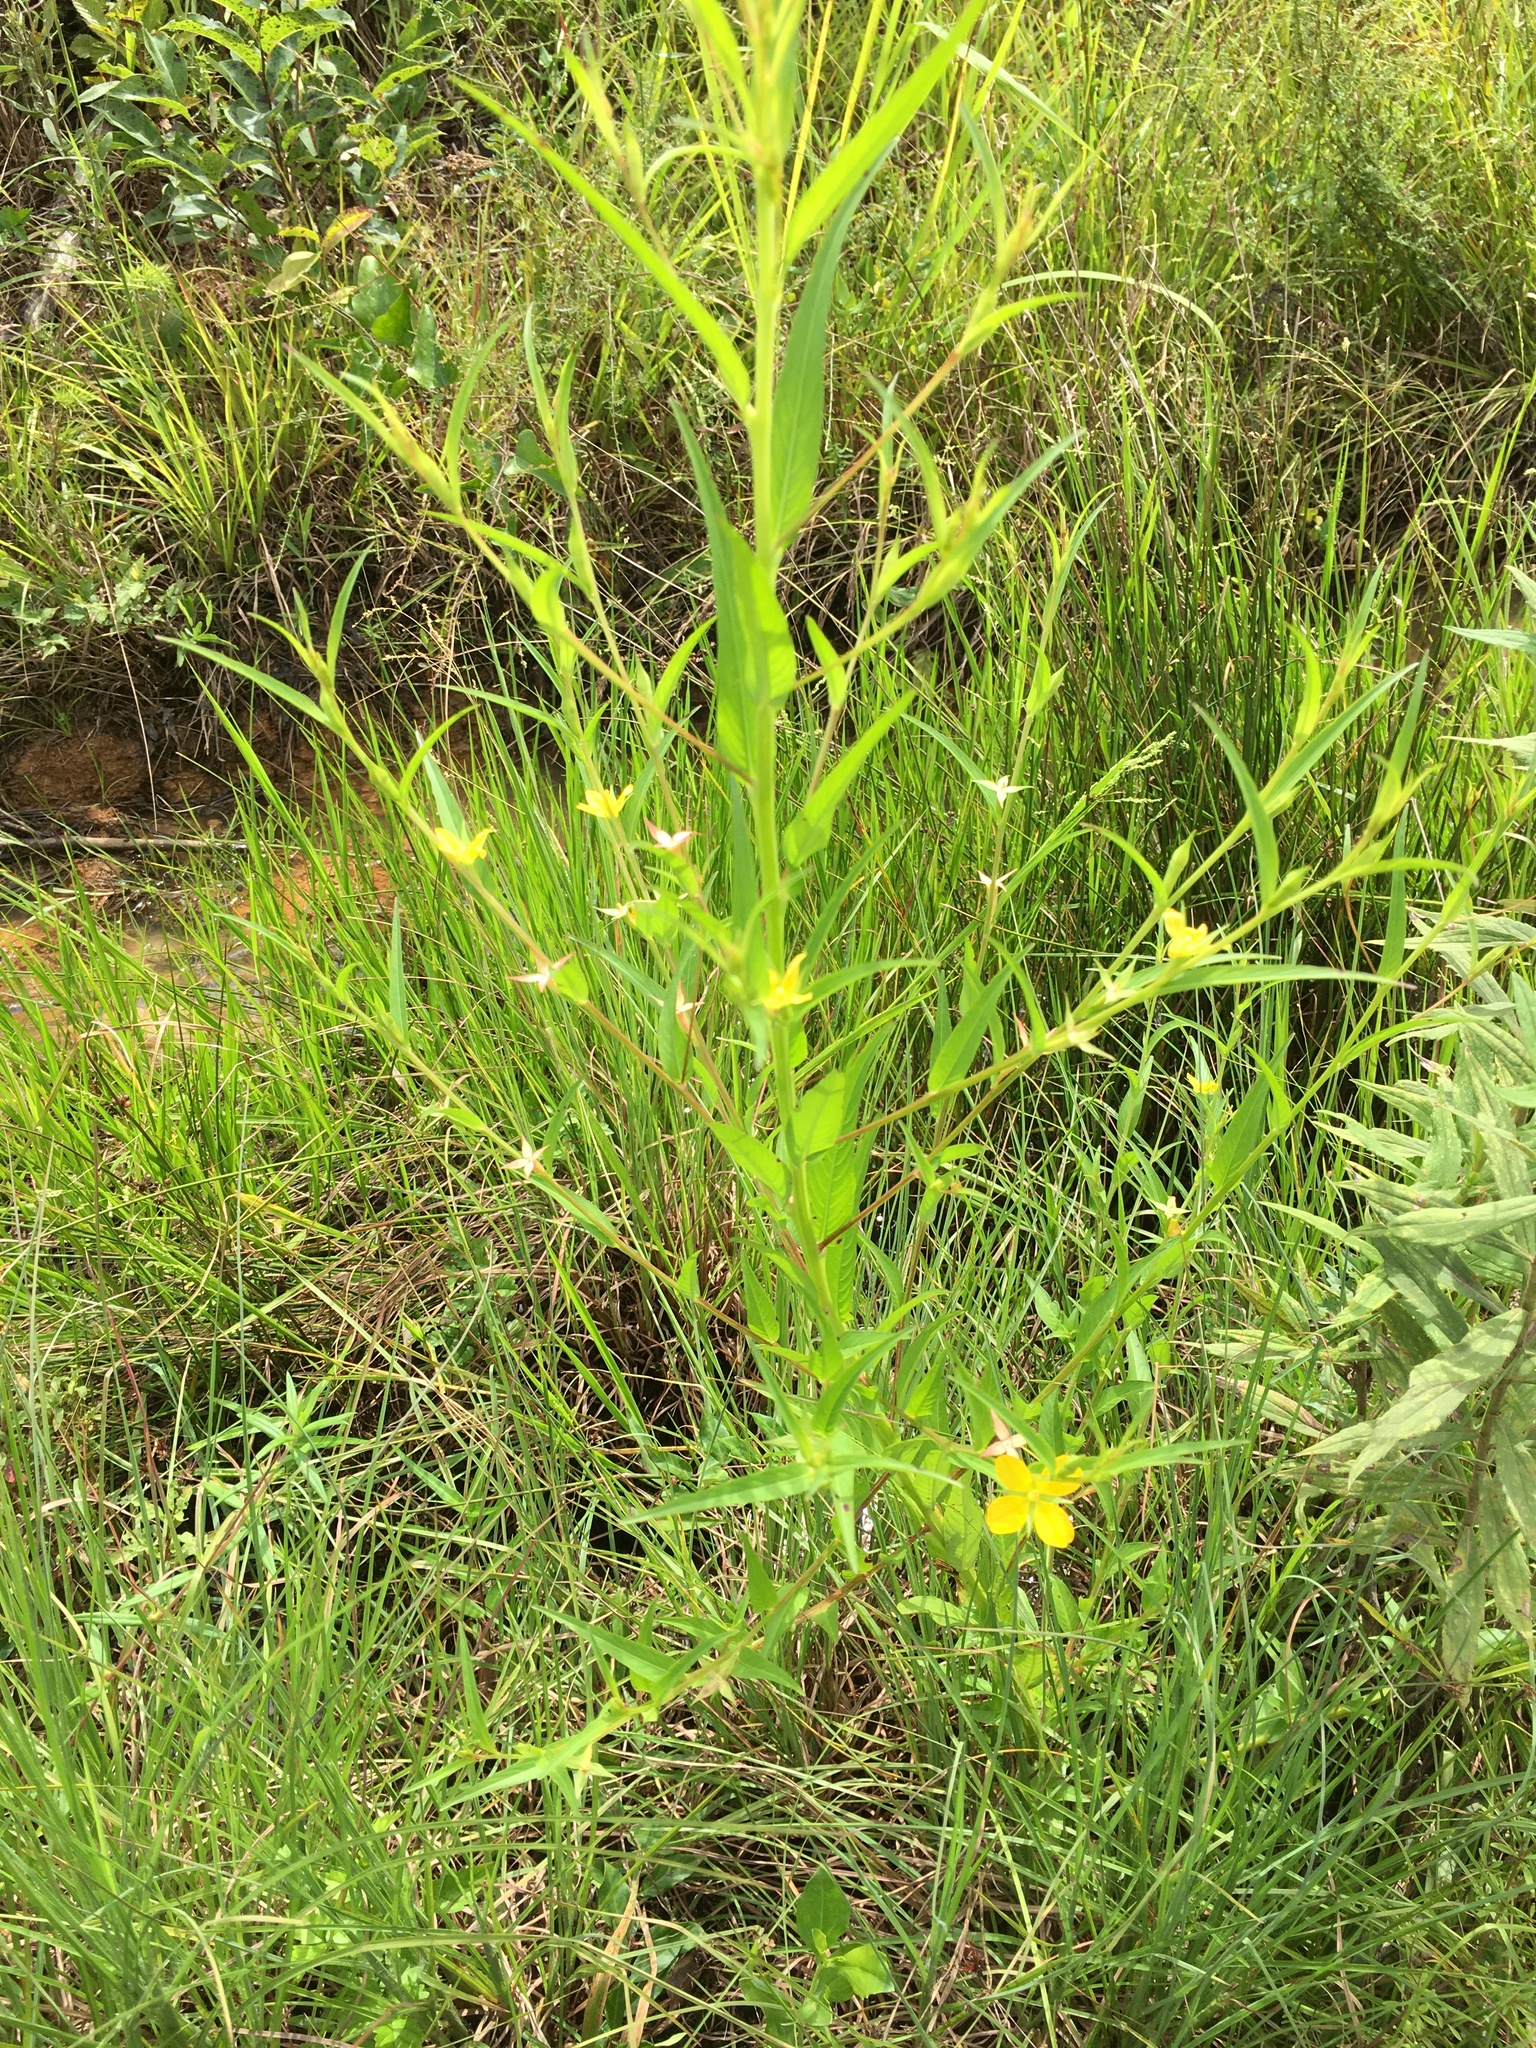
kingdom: Plantae
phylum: Tracheophyta
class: Magnoliopsida
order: Myrtales
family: Onagraceae
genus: Ludwigia
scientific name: Ludwigia decurrens
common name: Winged water-primrose
